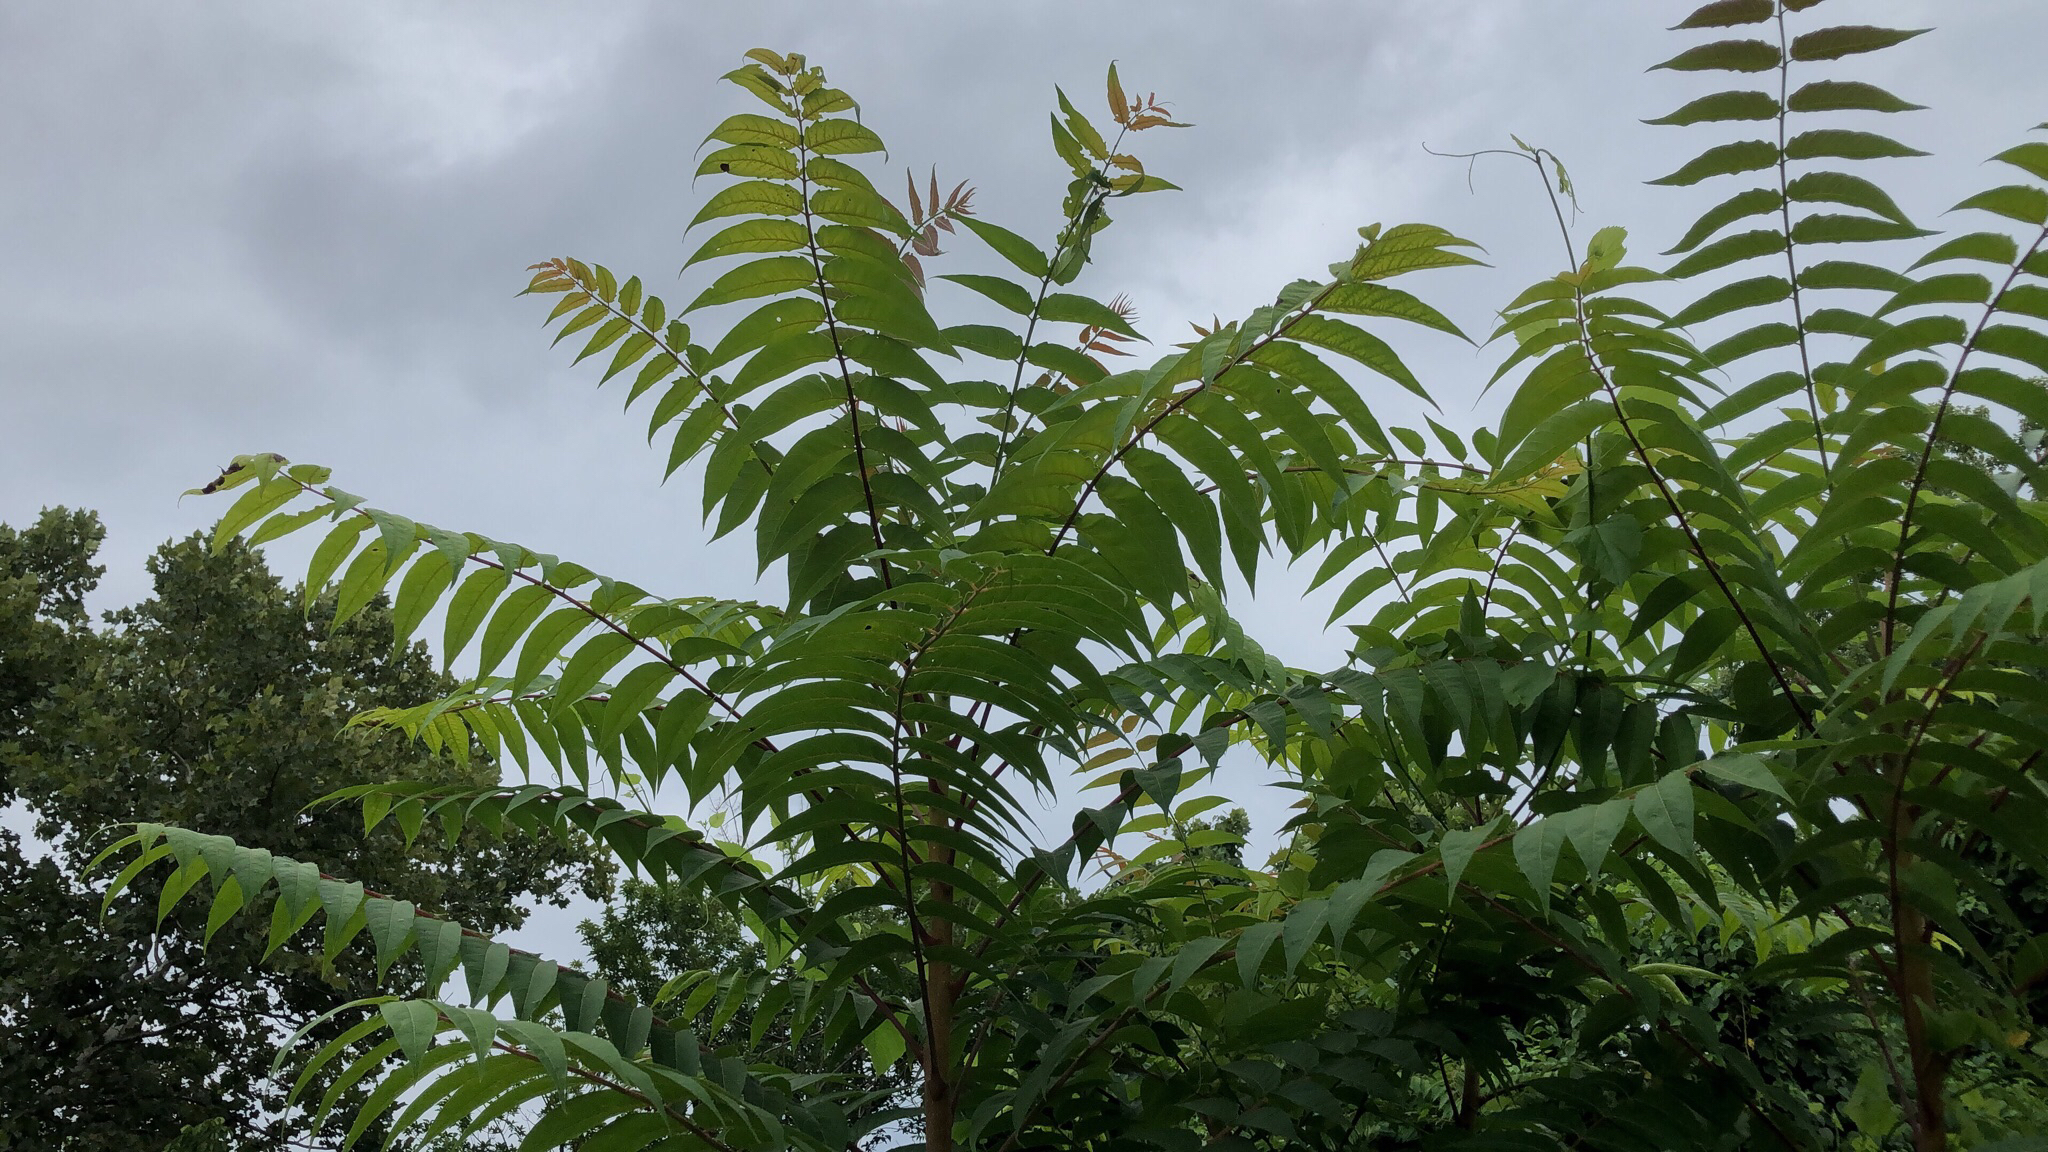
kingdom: Plantae
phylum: Tracheophyta
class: Magnoliopsida
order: Sapindales
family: Simaroubaceae
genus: Ailanthus
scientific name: Ailanthus altissima
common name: Tree-of-heaven
